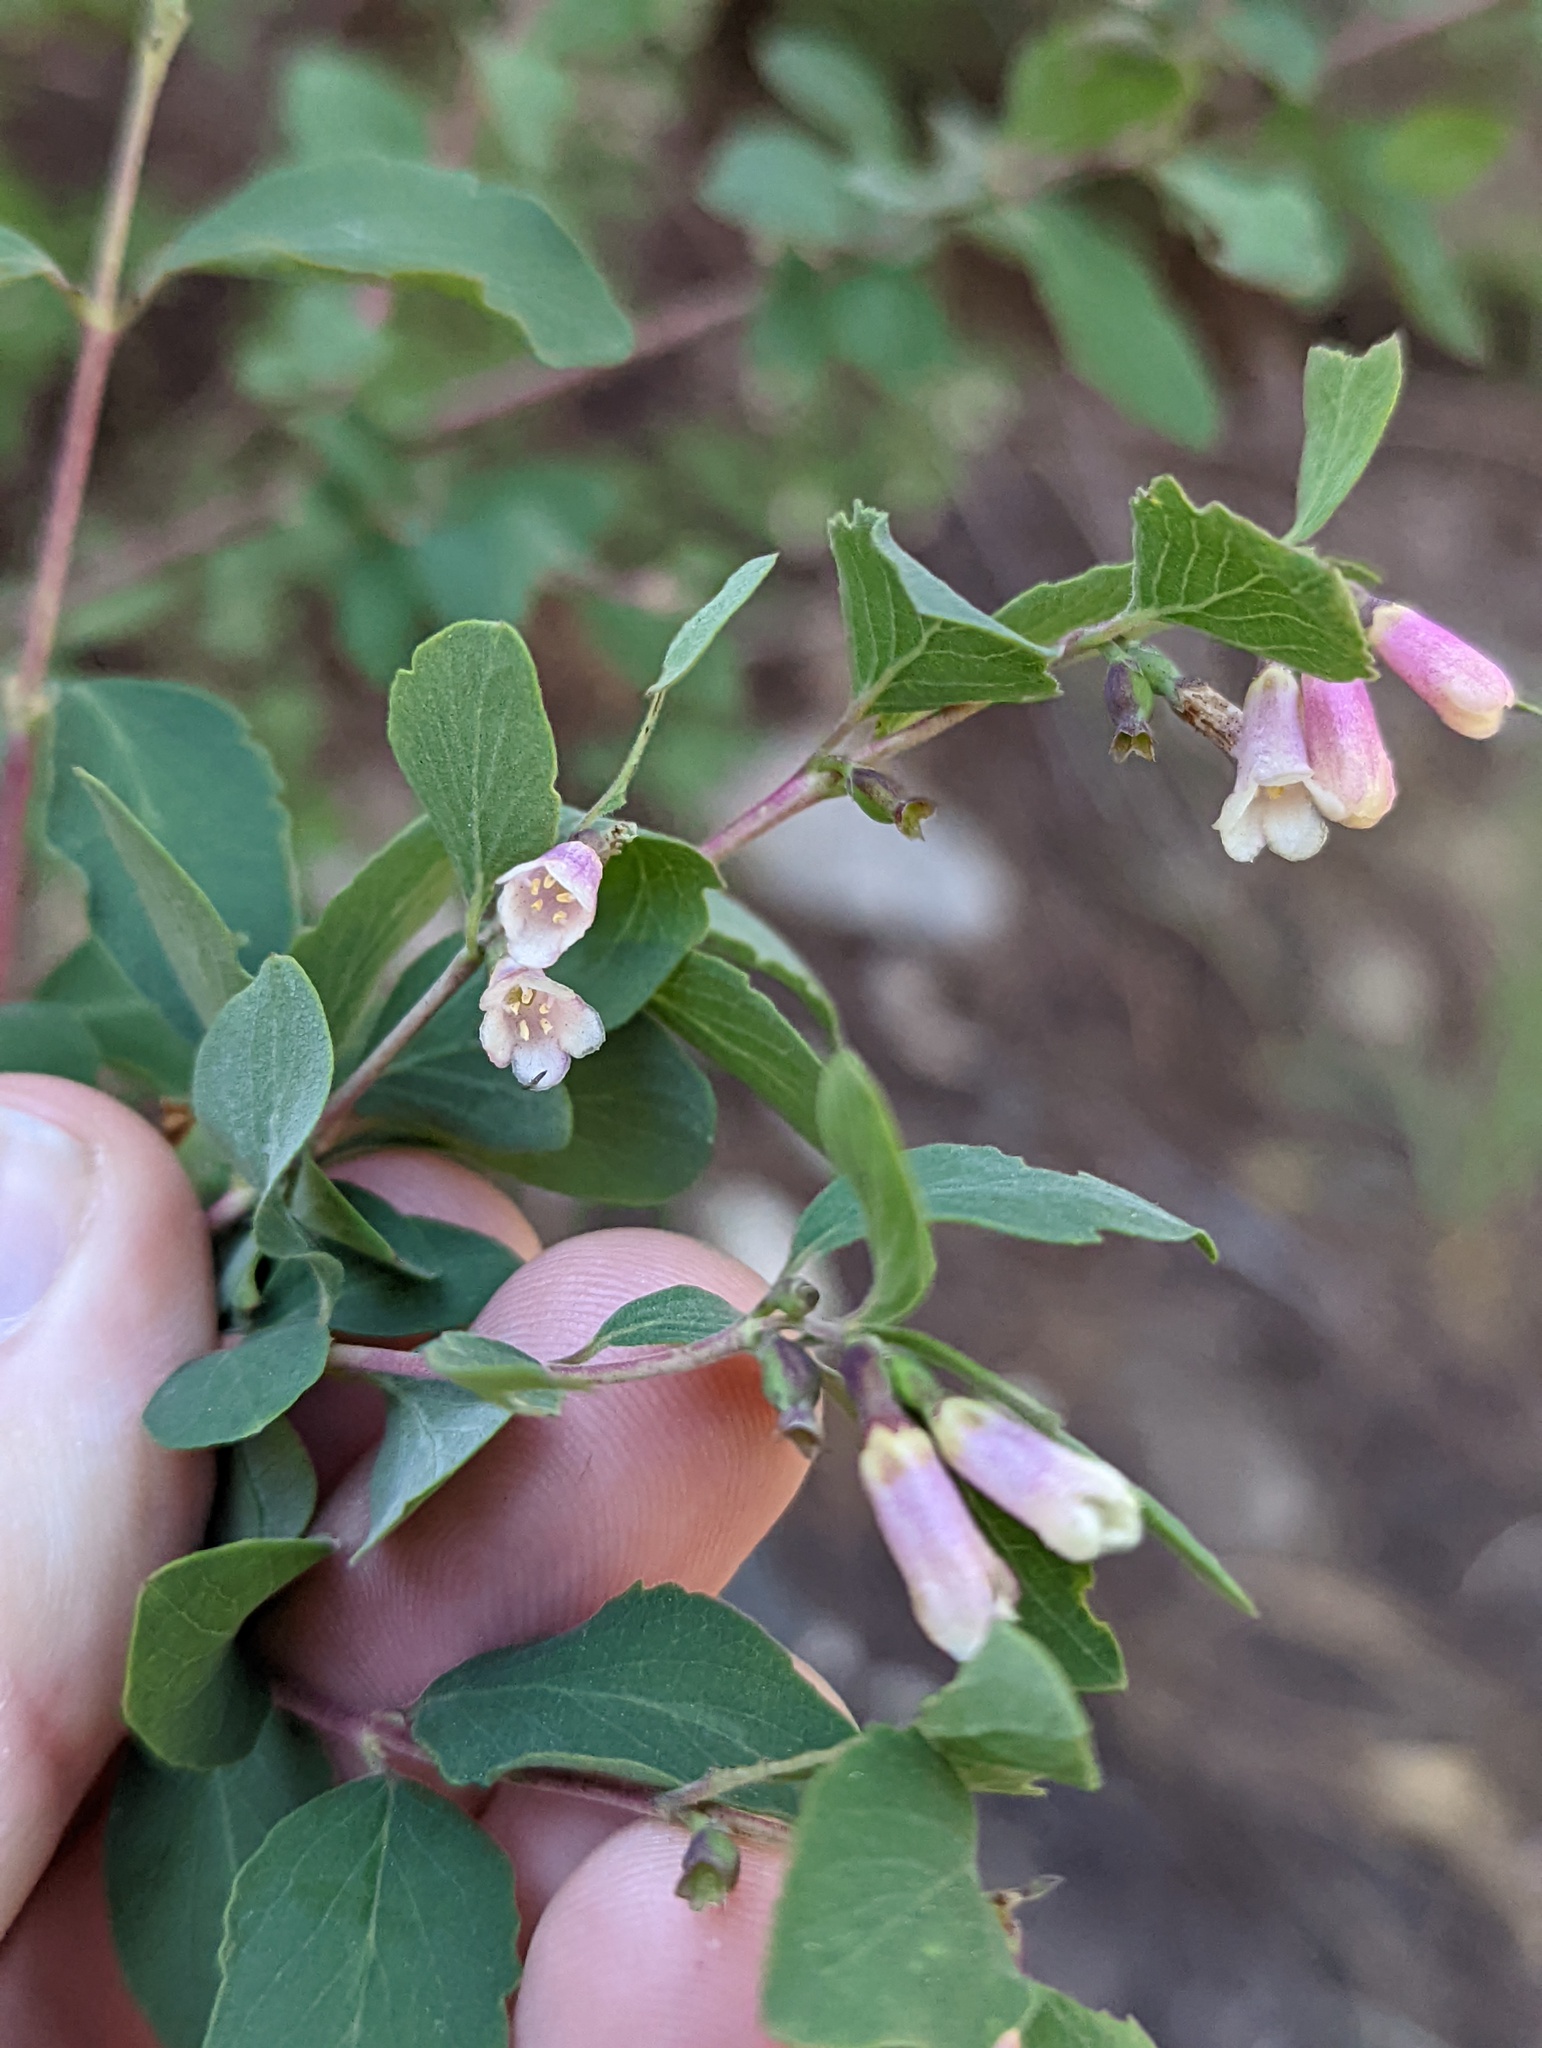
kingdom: Plantae
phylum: Tracheophyta
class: Magnoliopsida
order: Dipsacales
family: Caprifoliaceae
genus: Symphoricarpos
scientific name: Symphoricarpos rotundifolius
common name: Round-leaved snowberry
